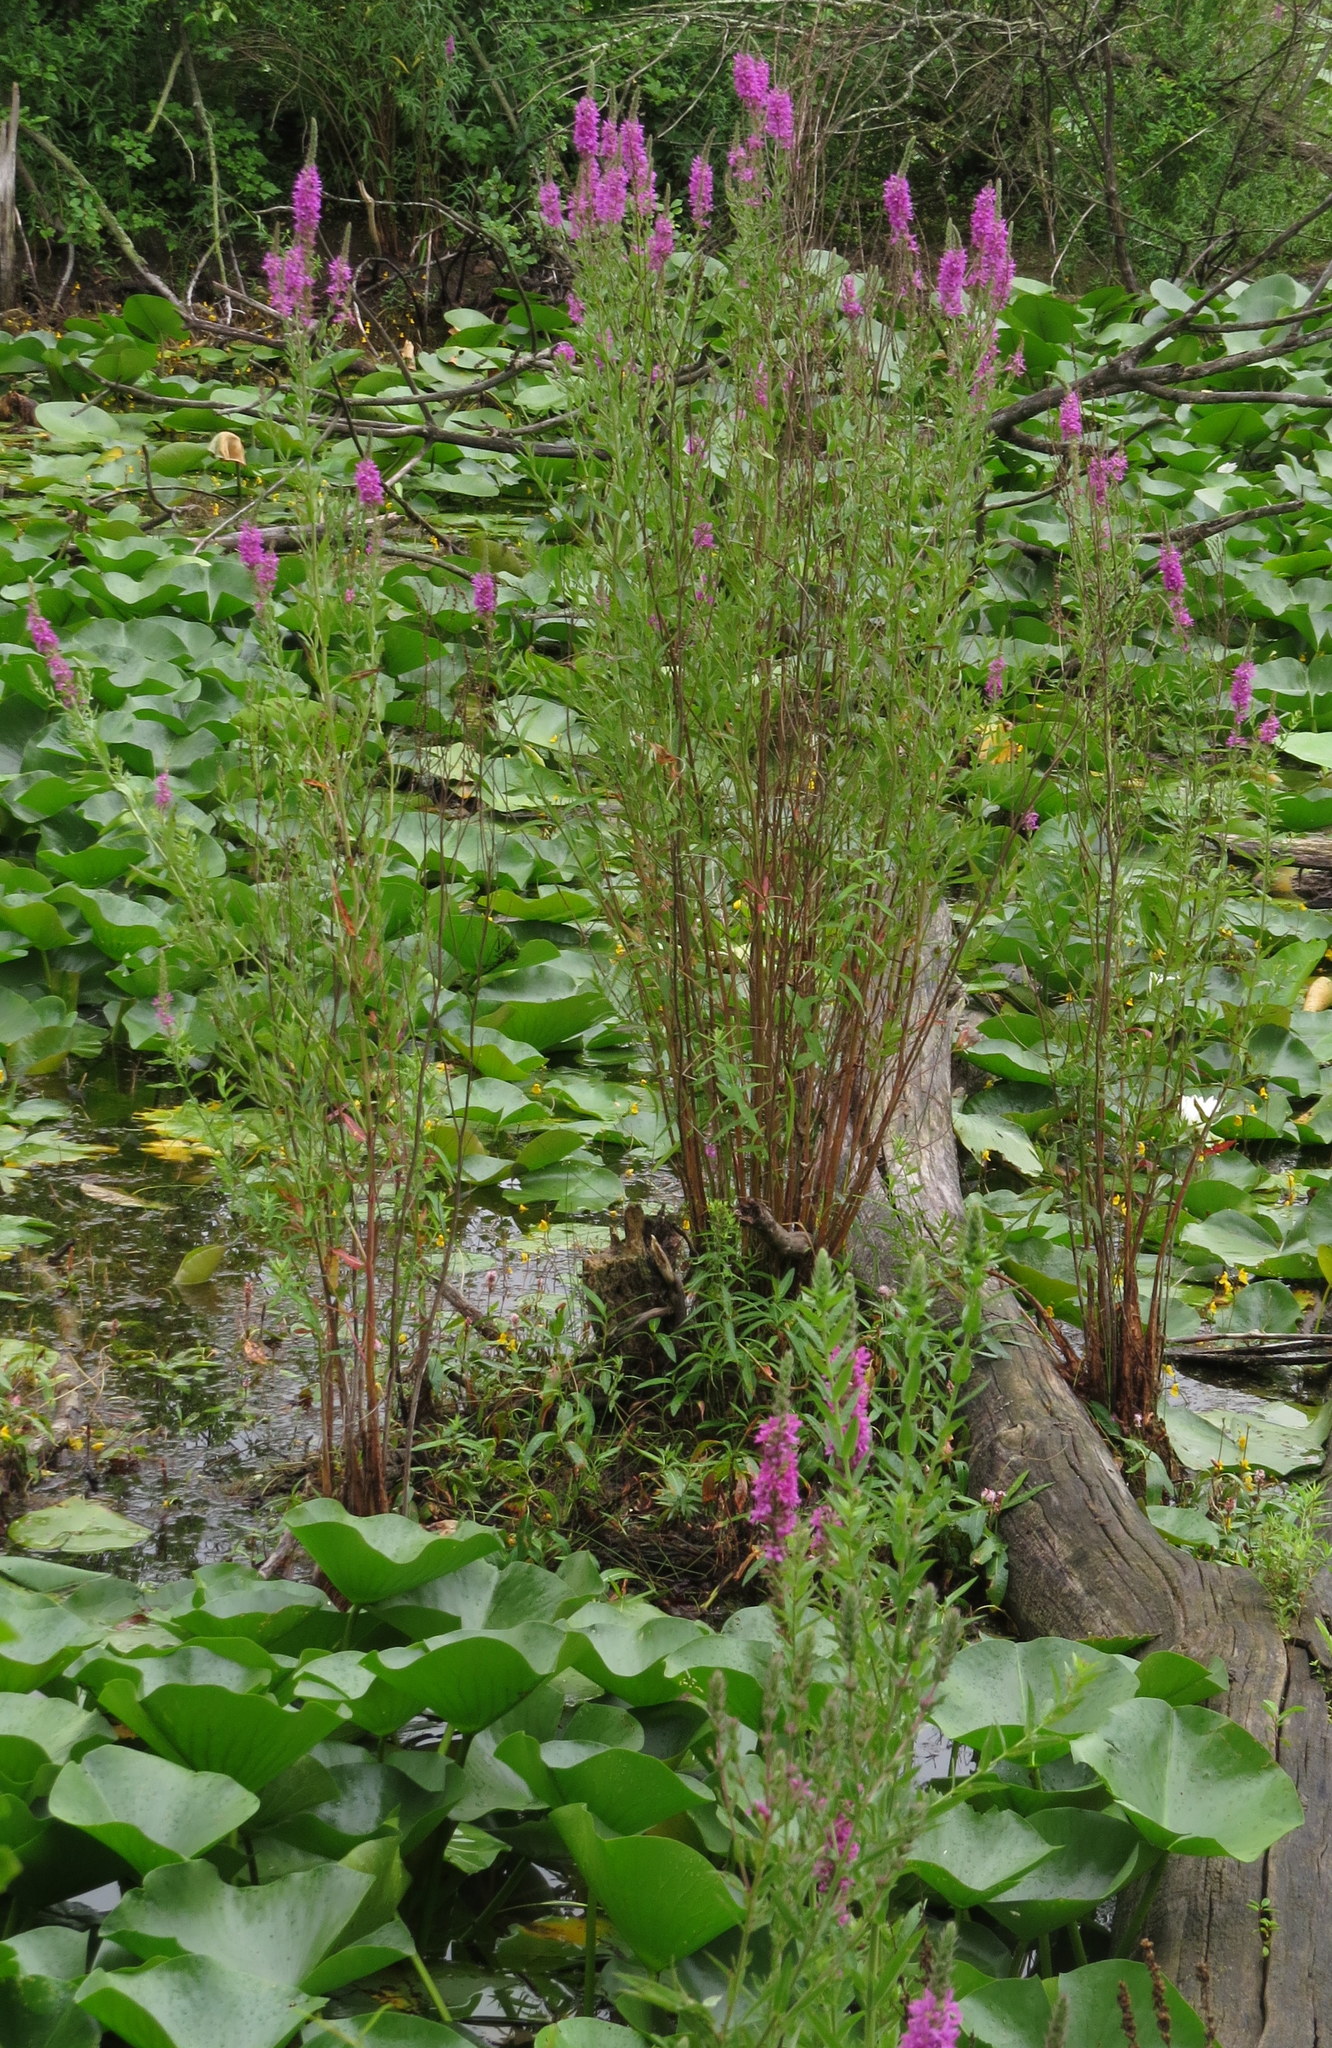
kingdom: Plantae
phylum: Tracheophyta
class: Magnoliopsida
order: Myrtales
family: Lythraceae
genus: Lythrum
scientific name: Lythrum salicaria
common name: Purple loosestrife
